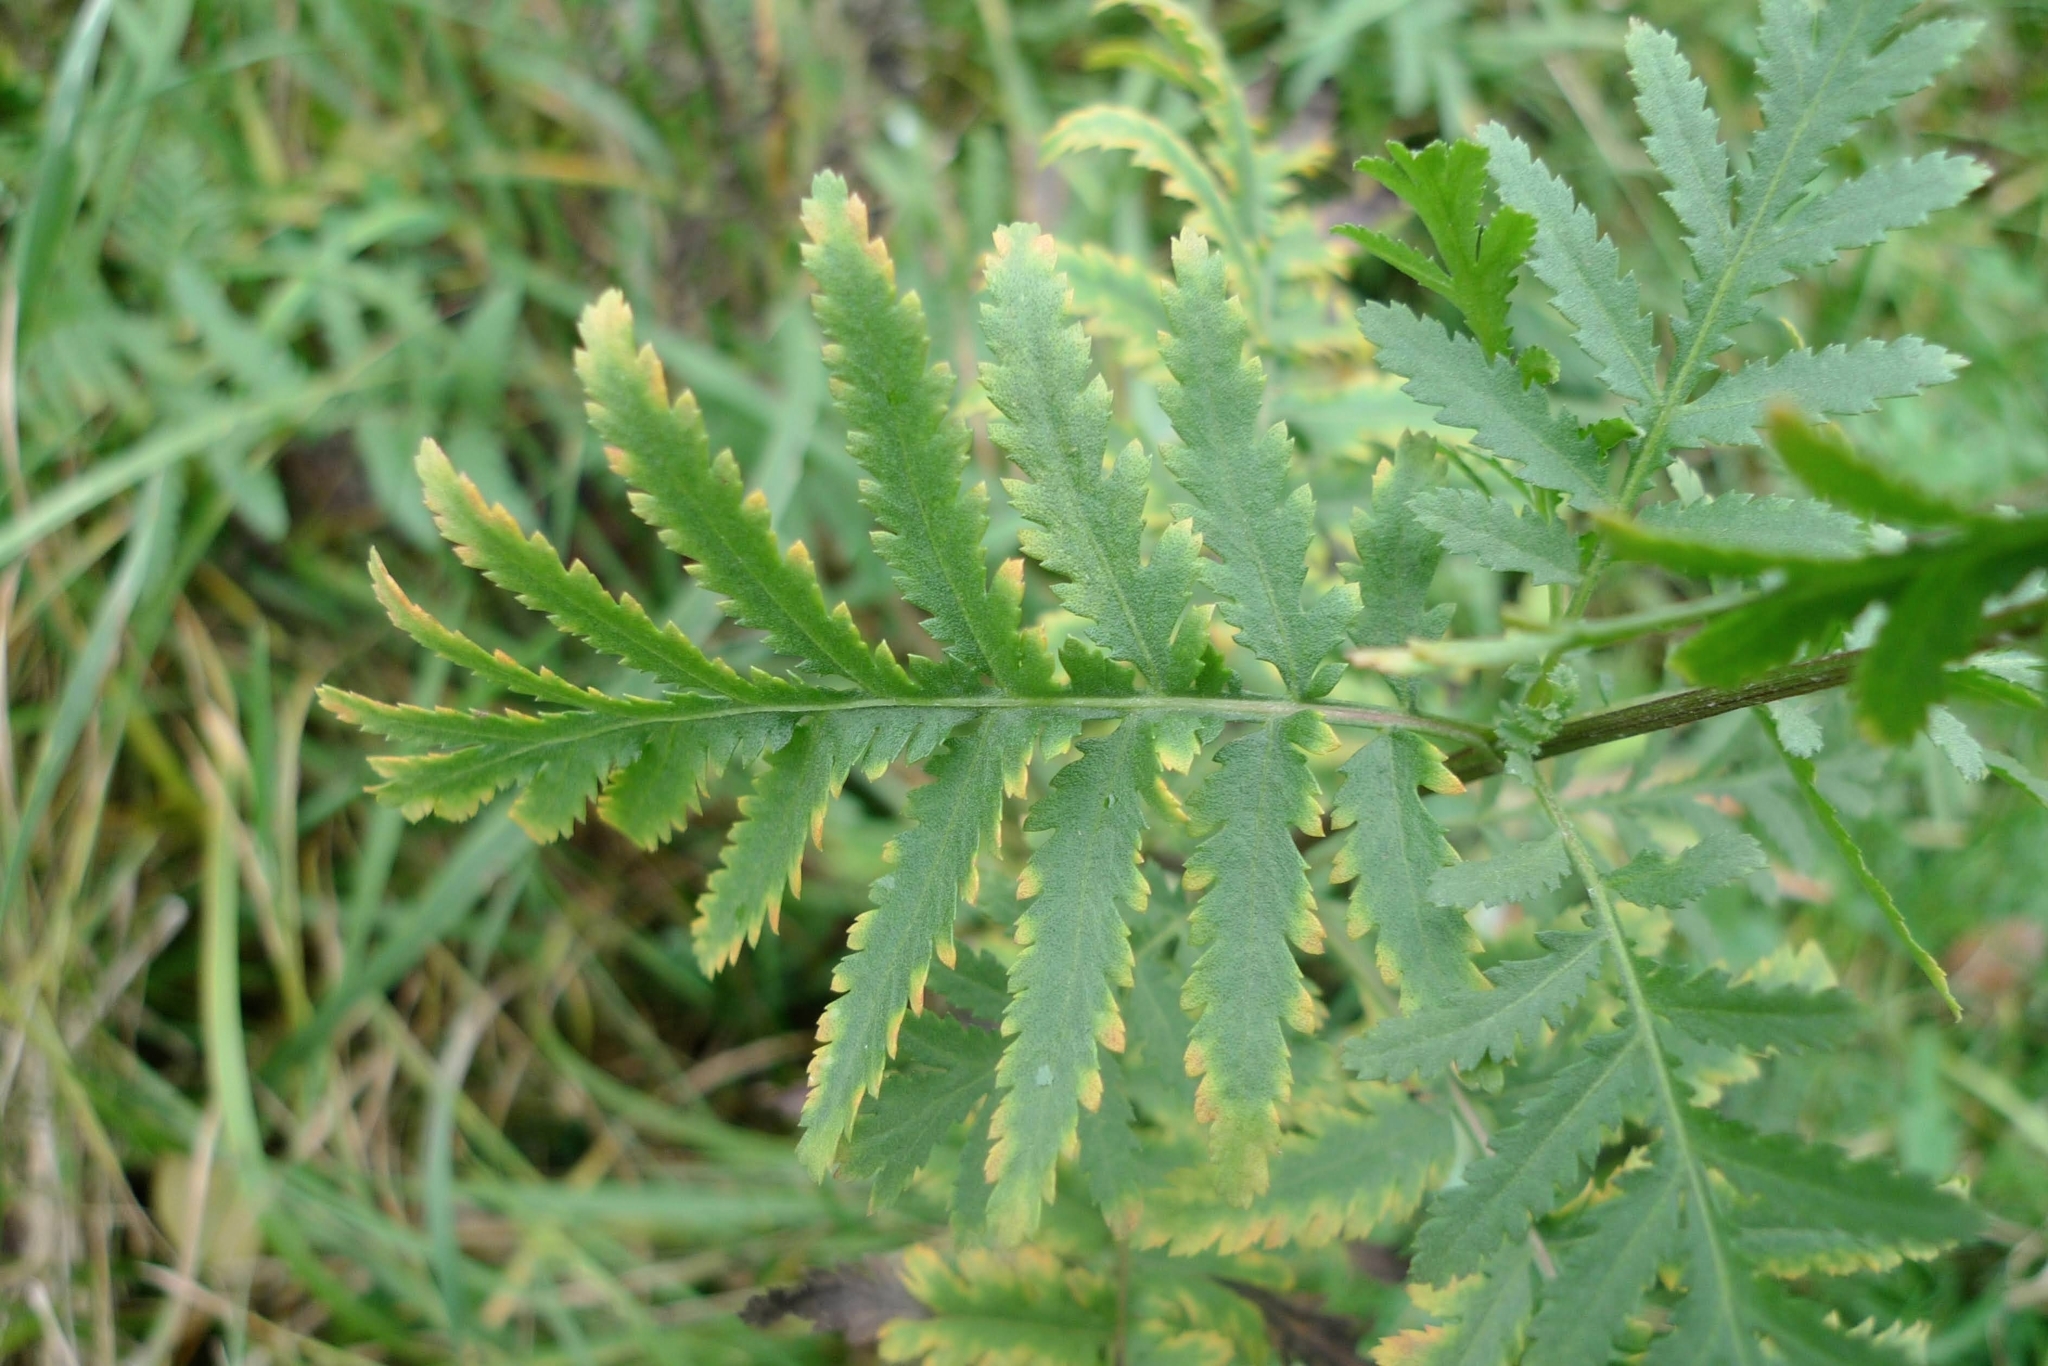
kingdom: Plantae
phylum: Tracheophyta
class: Magnoliopsida
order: Asterales
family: Asteraceae
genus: Tanacetum
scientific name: Tanacetum vulgare
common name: Common tansy
